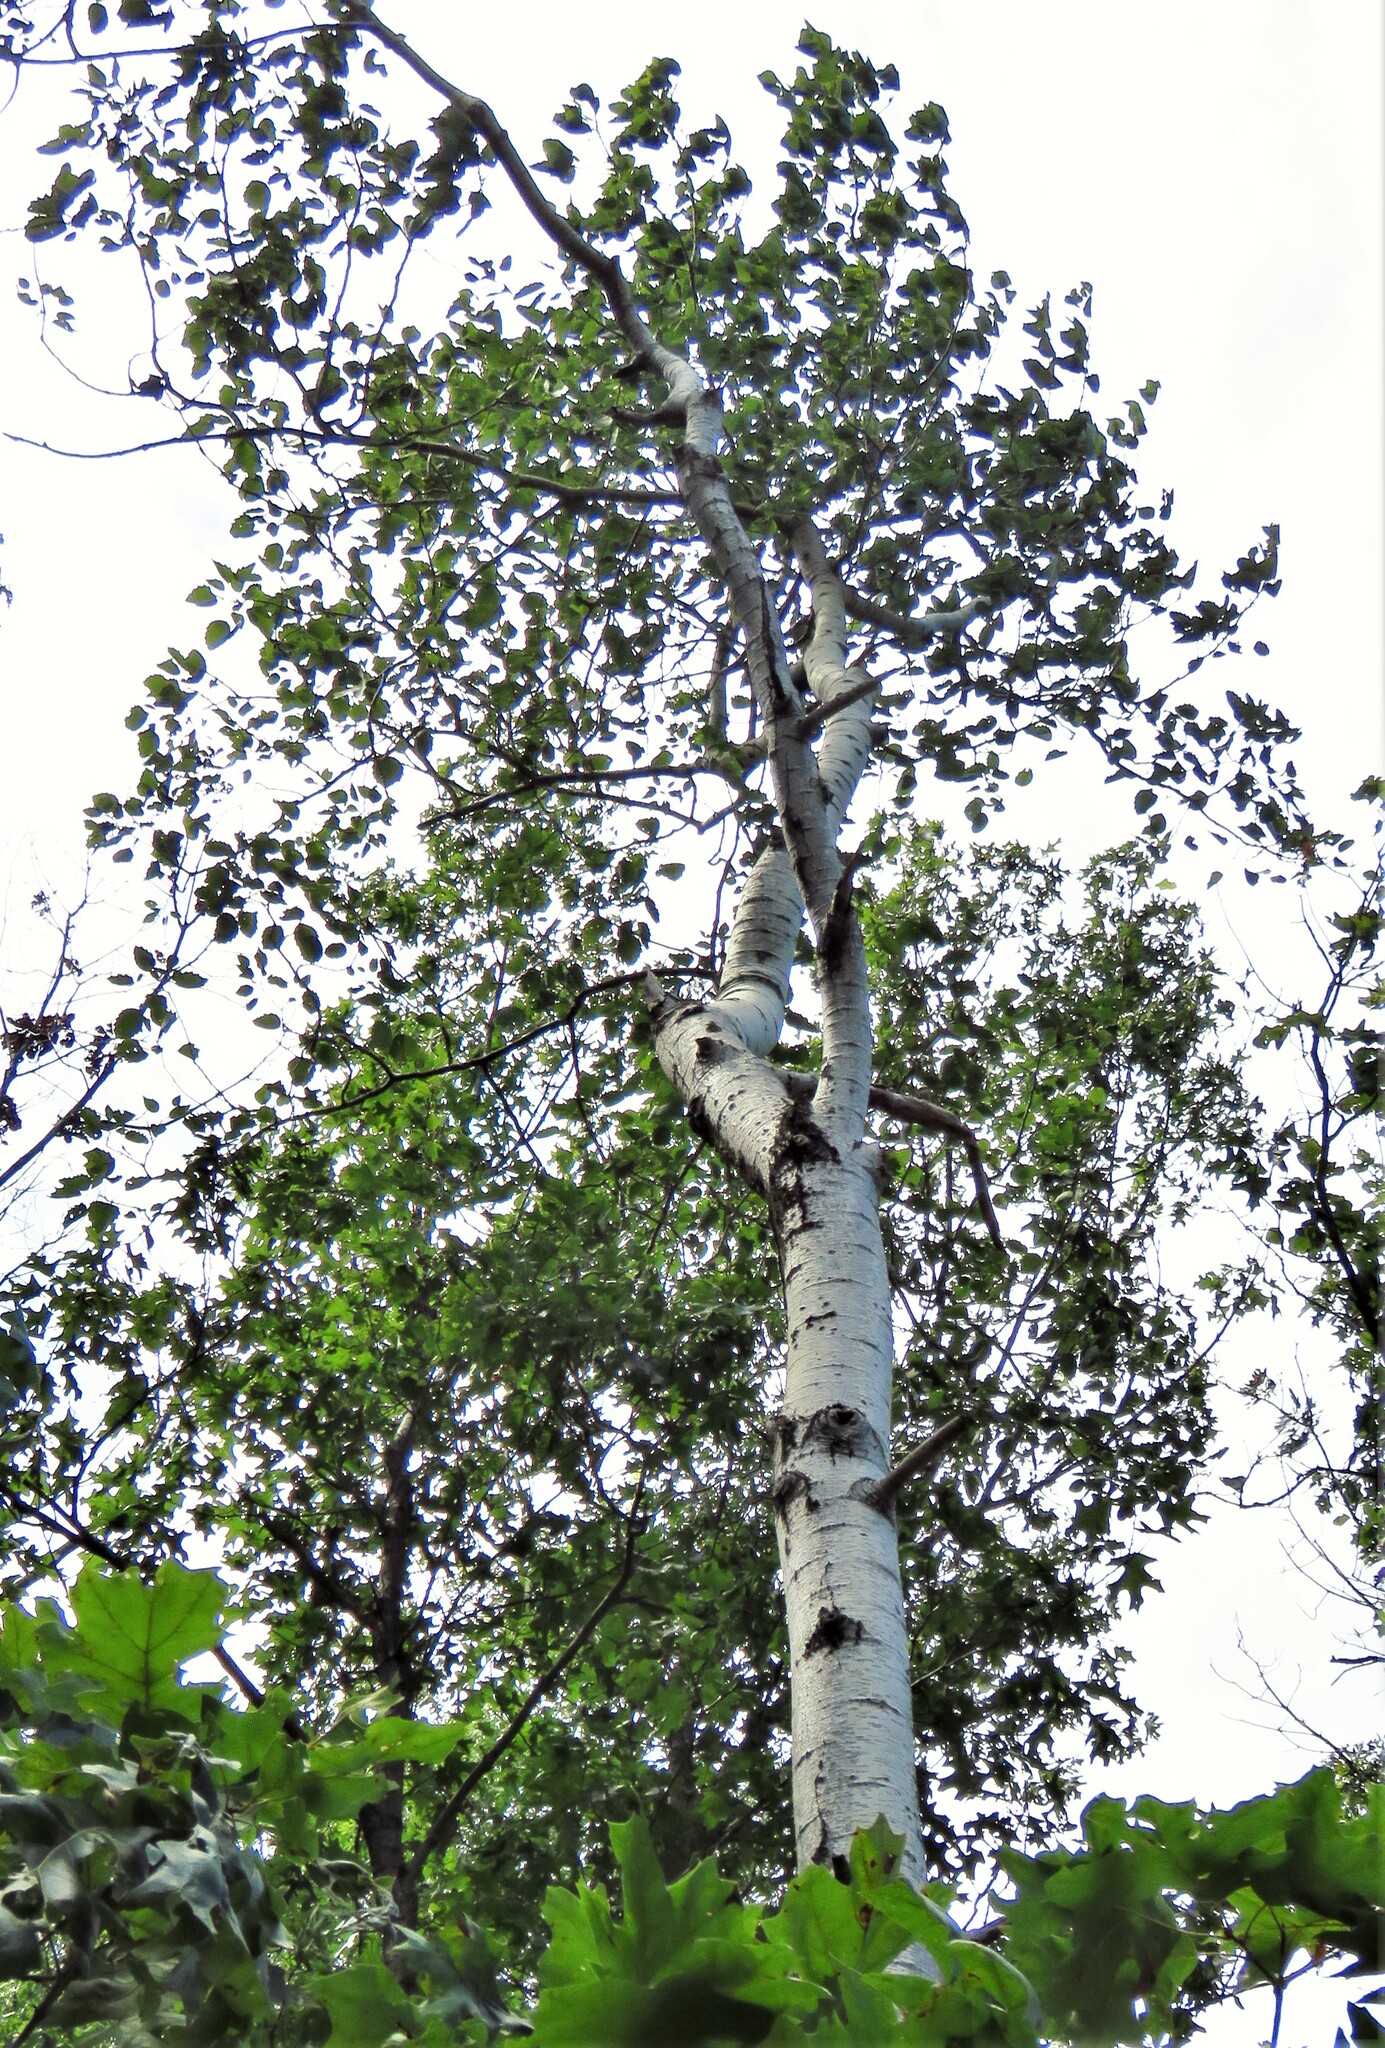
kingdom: Plantae
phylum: Tracheophyta
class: Magnoliopsida
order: Malpighiales
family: Salicaceae
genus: Populus
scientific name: Populus grandidentata
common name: Bigtooth aspen
